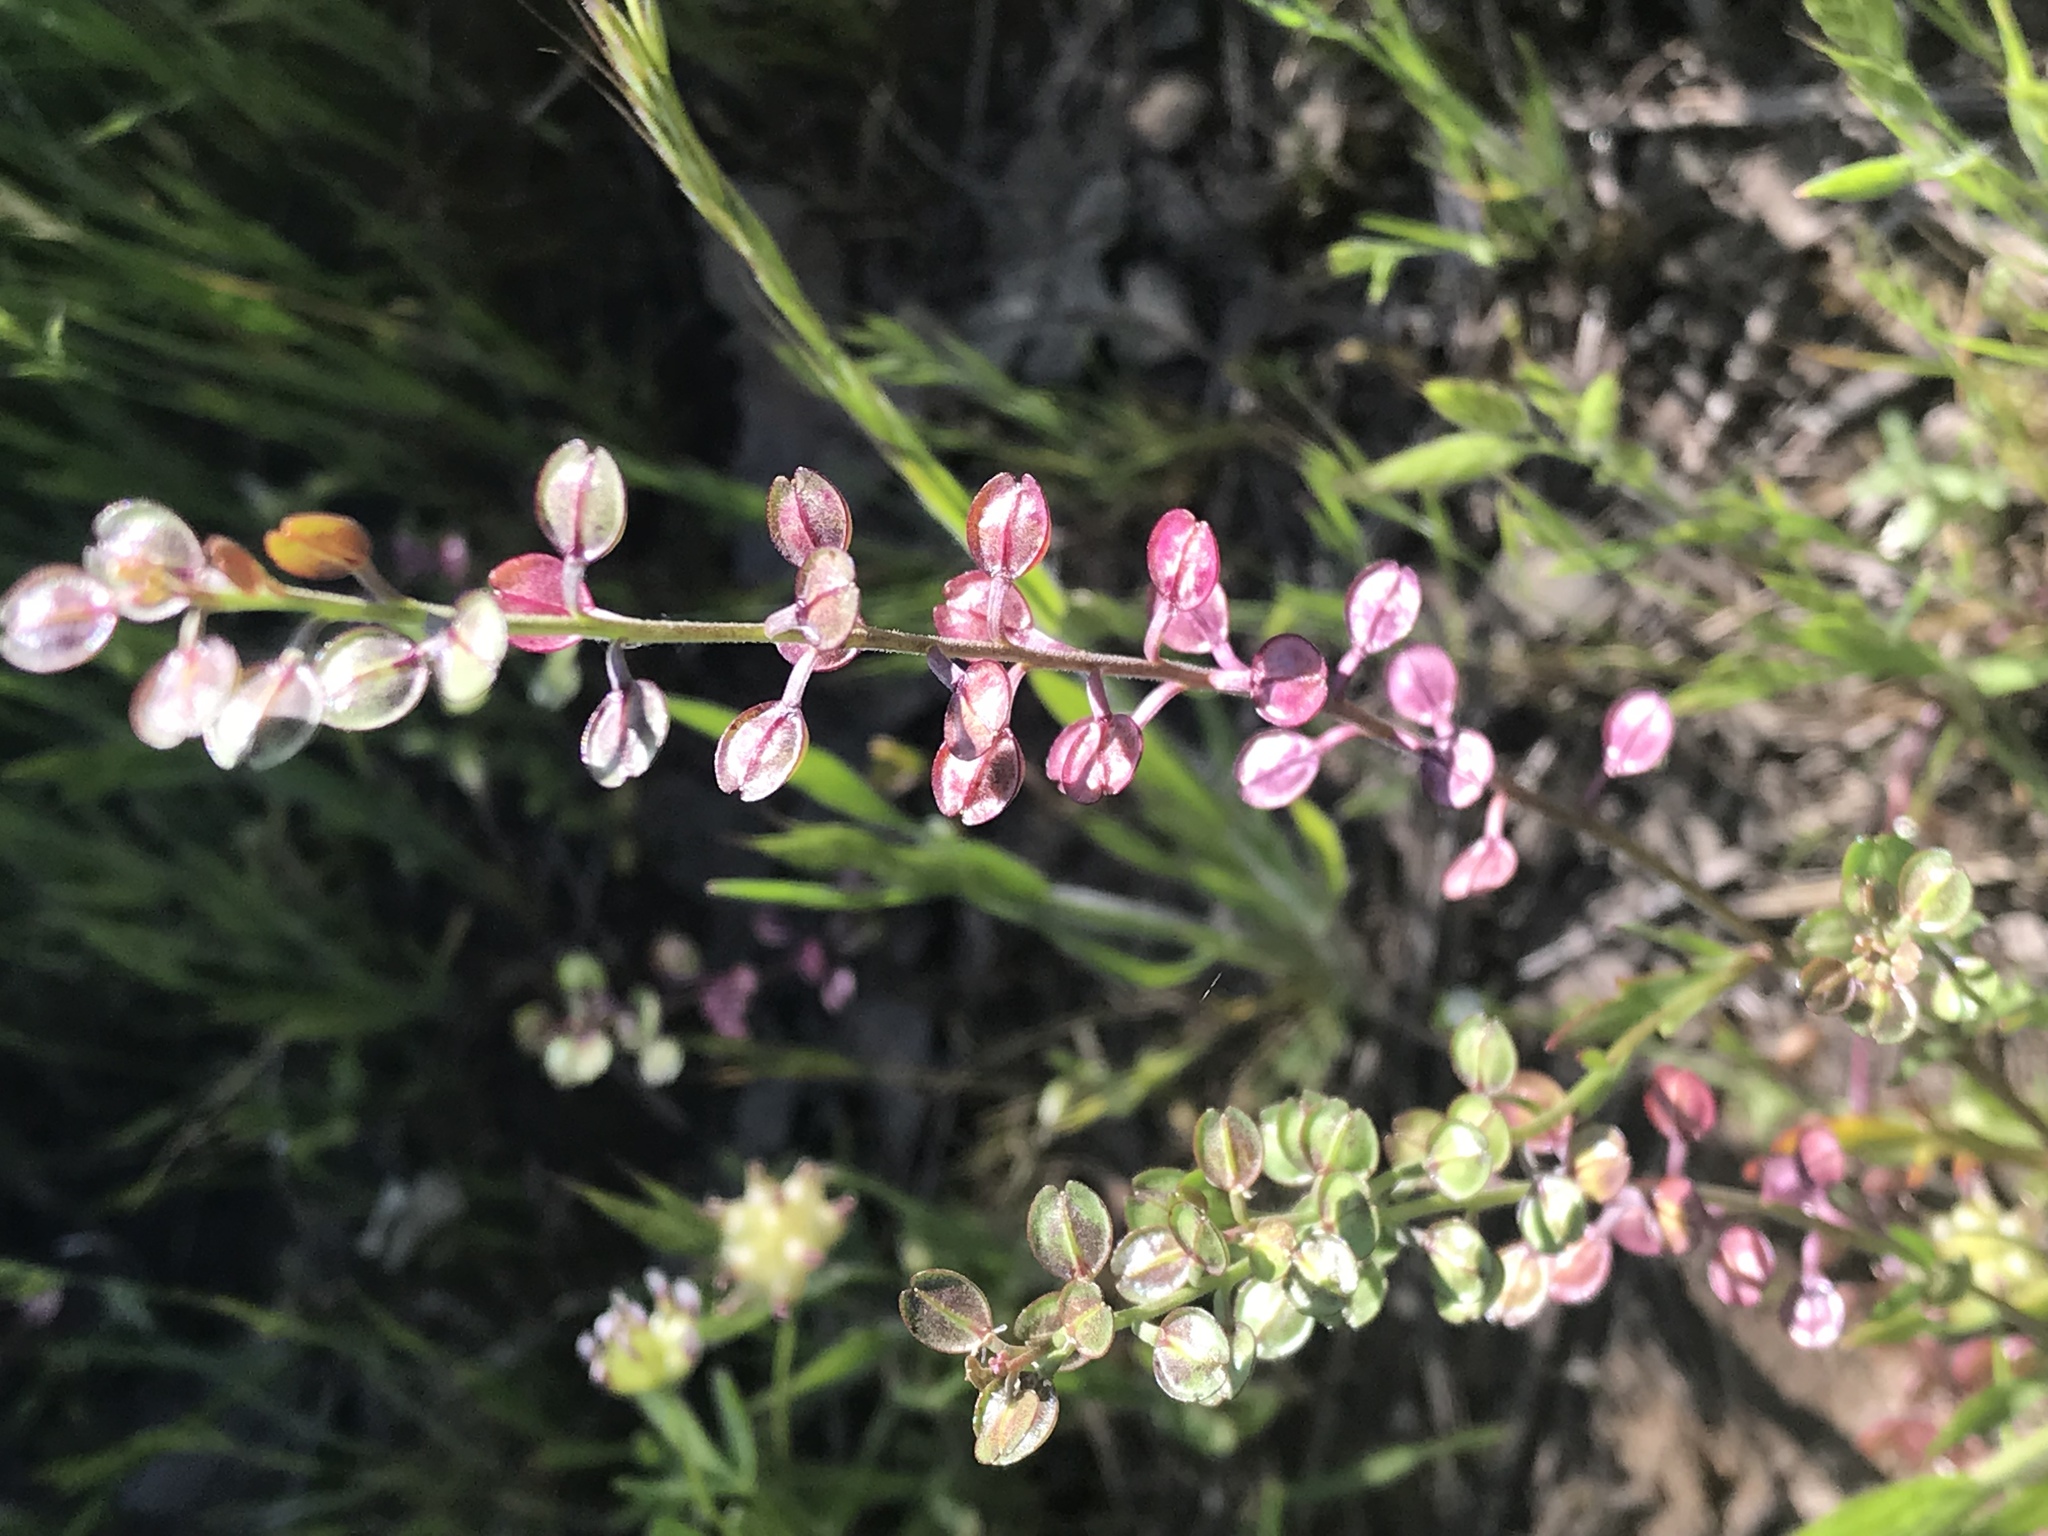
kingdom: Plantae
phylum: Tracheophyta
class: Magnoliopsida
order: Brassicales
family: Brassicaceae
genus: Lepidium
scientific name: Lepidium nitidum
